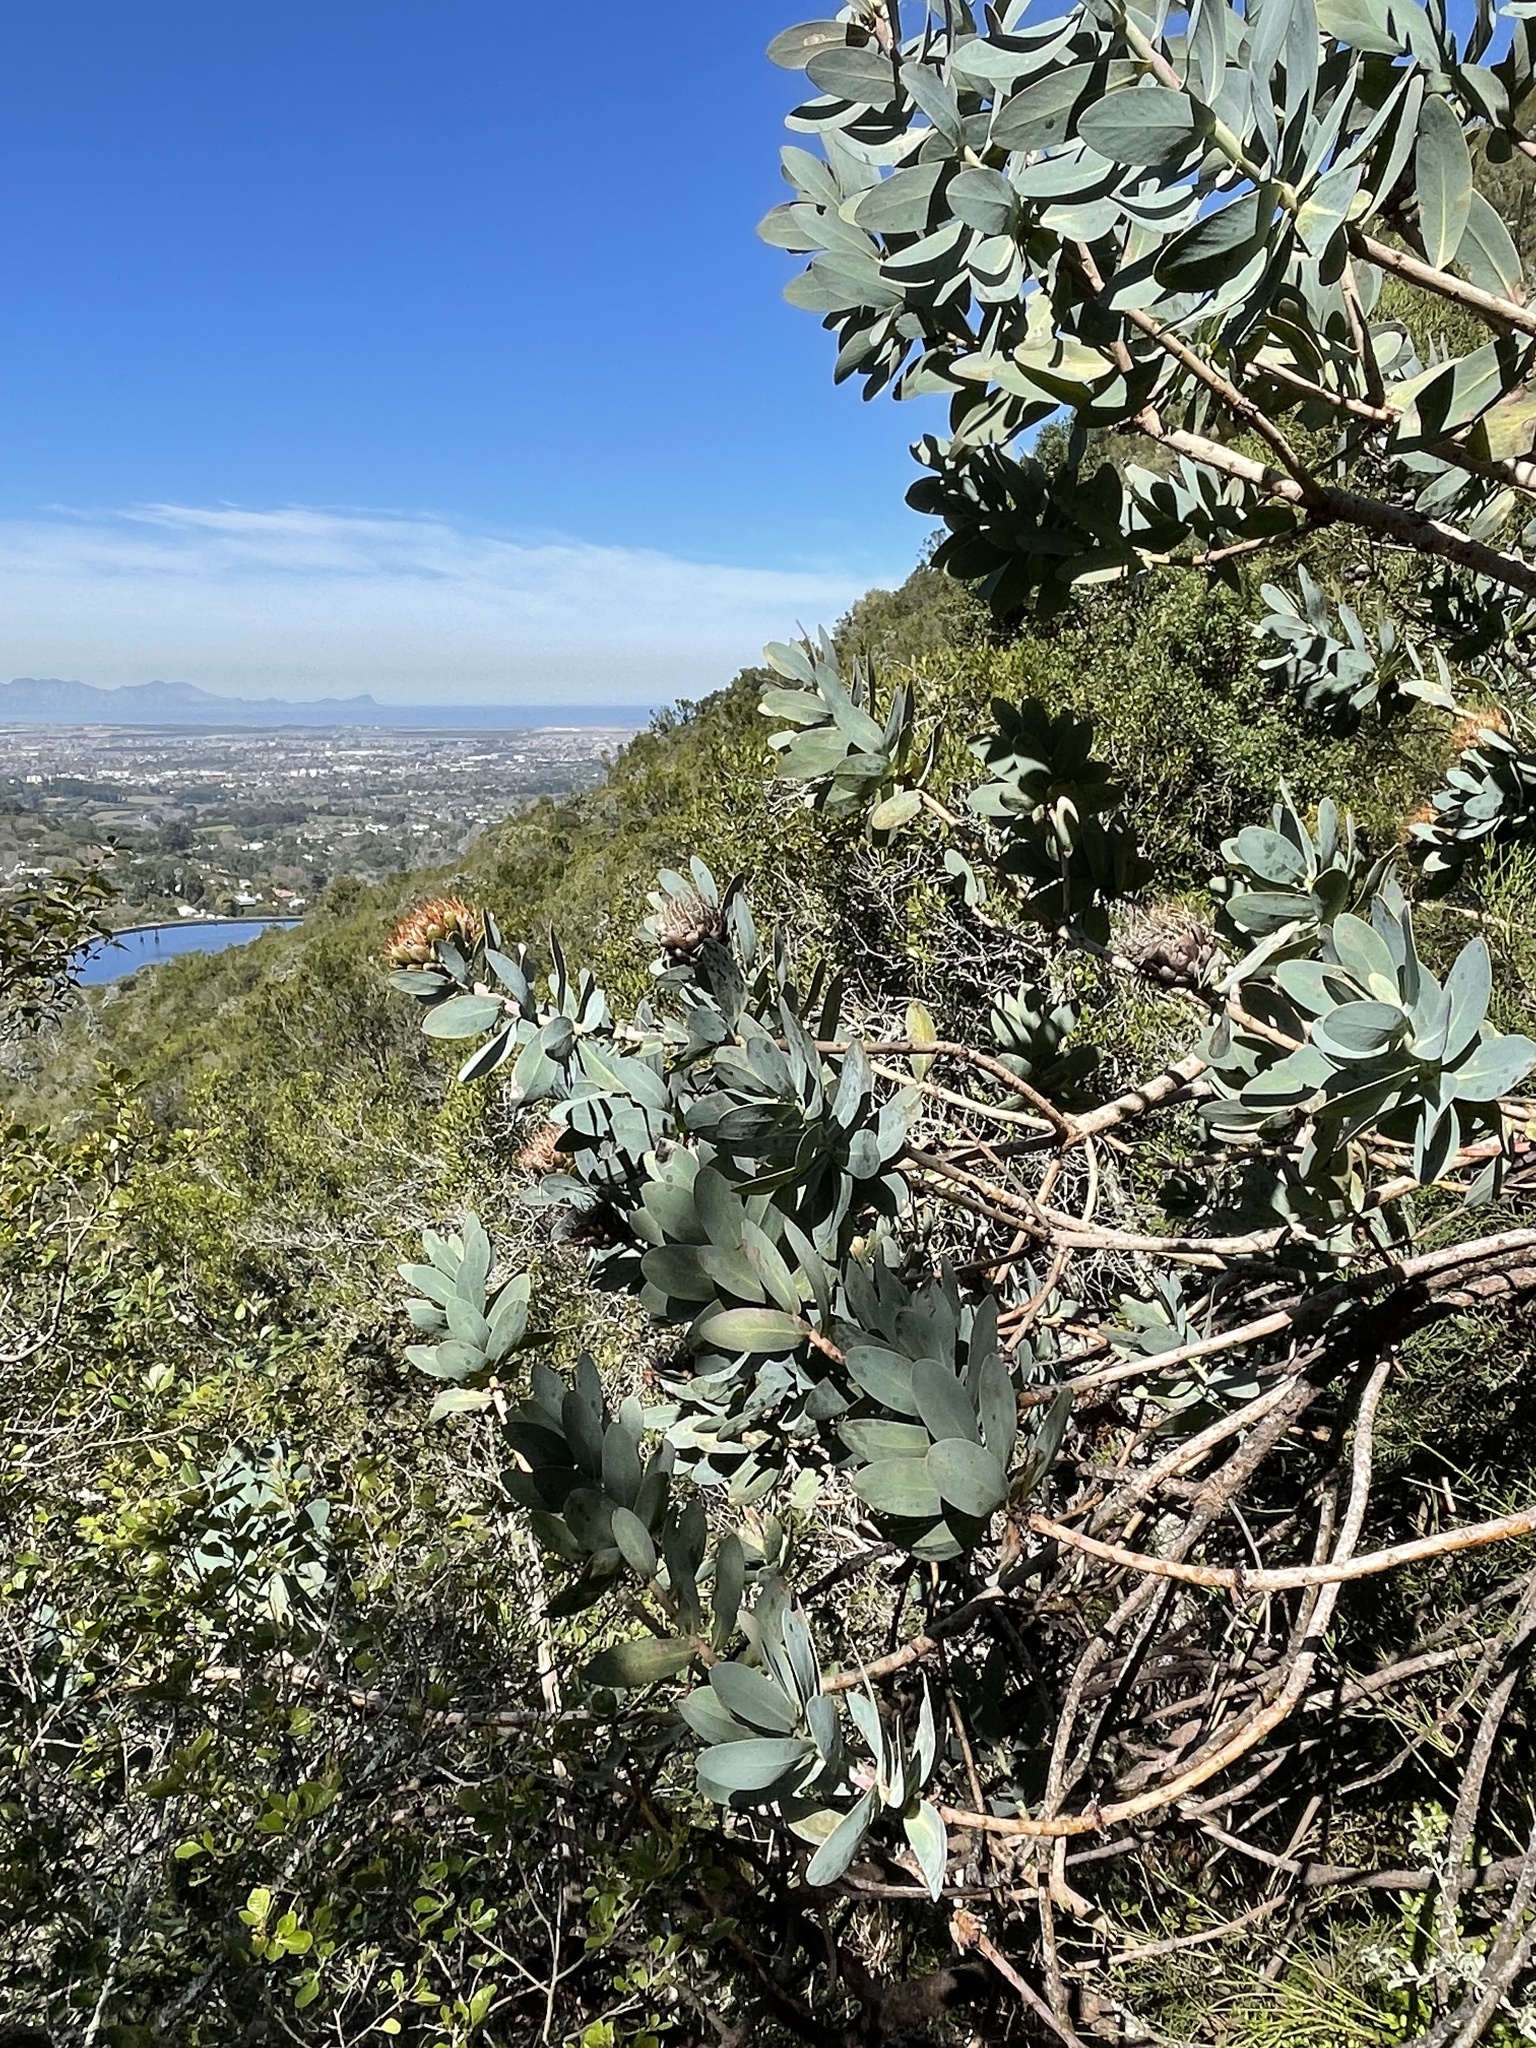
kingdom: Plantae
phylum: Tracheophyta
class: Magnoliopsida
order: Proteales
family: Proteaceae
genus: Protea
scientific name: Protea nitida
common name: Tree protea
